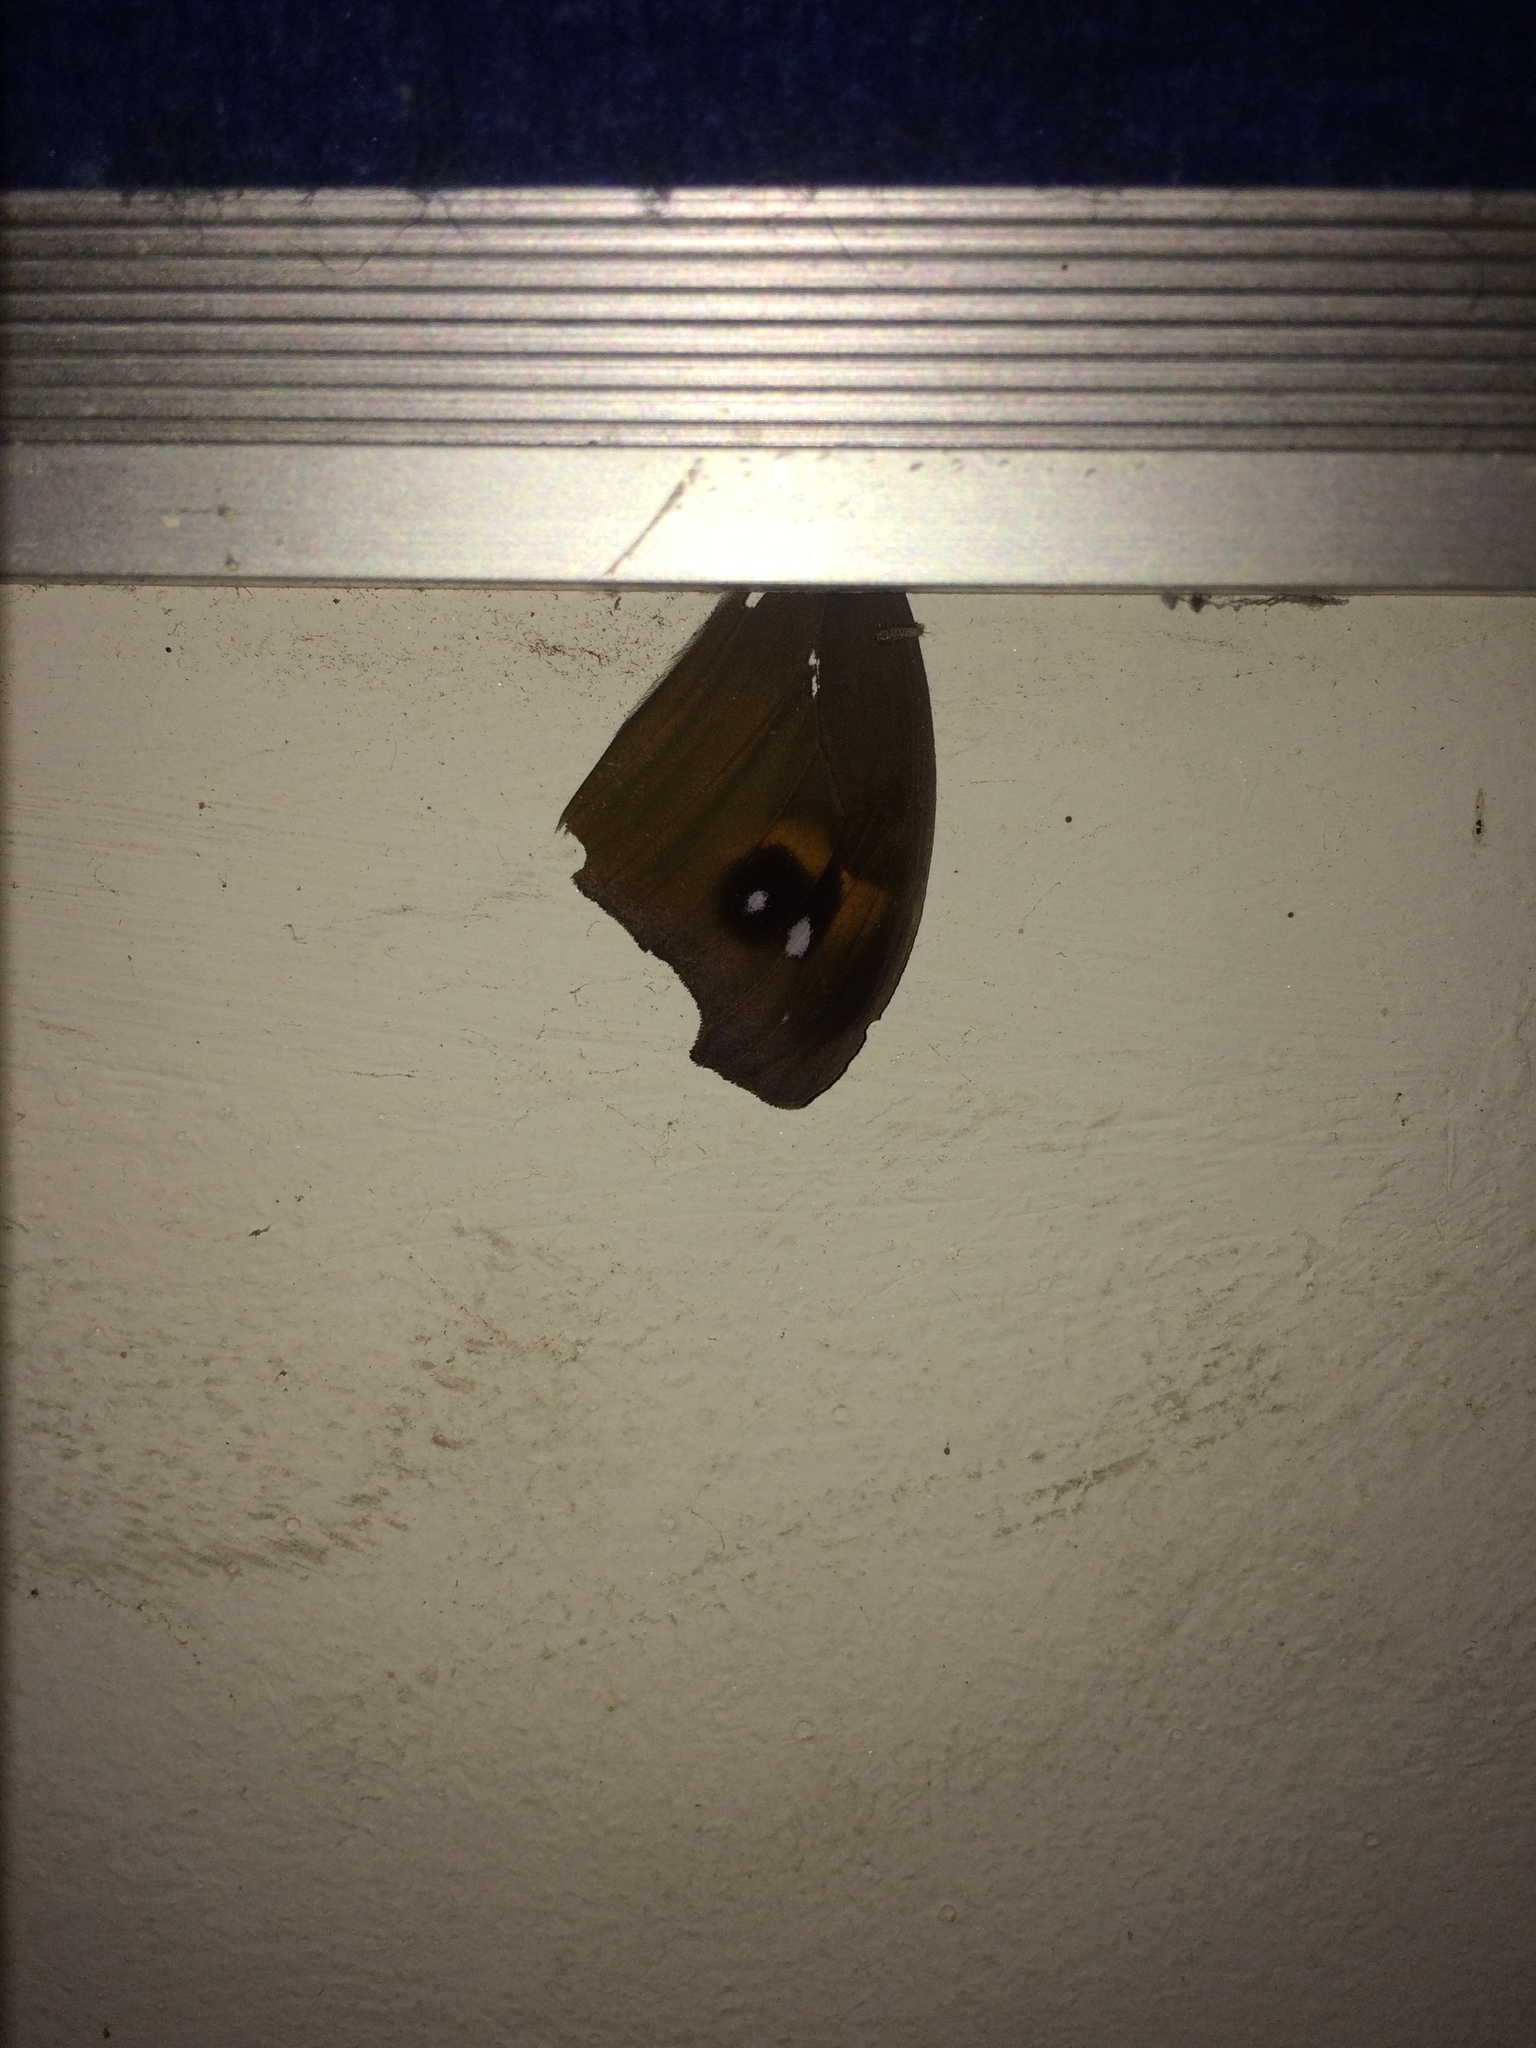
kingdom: Animalia
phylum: Arthropoda
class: Insecta
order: Lepidoptera
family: Nymphalidae
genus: Melanitis
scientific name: Melanitis leda
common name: Twilight brown
